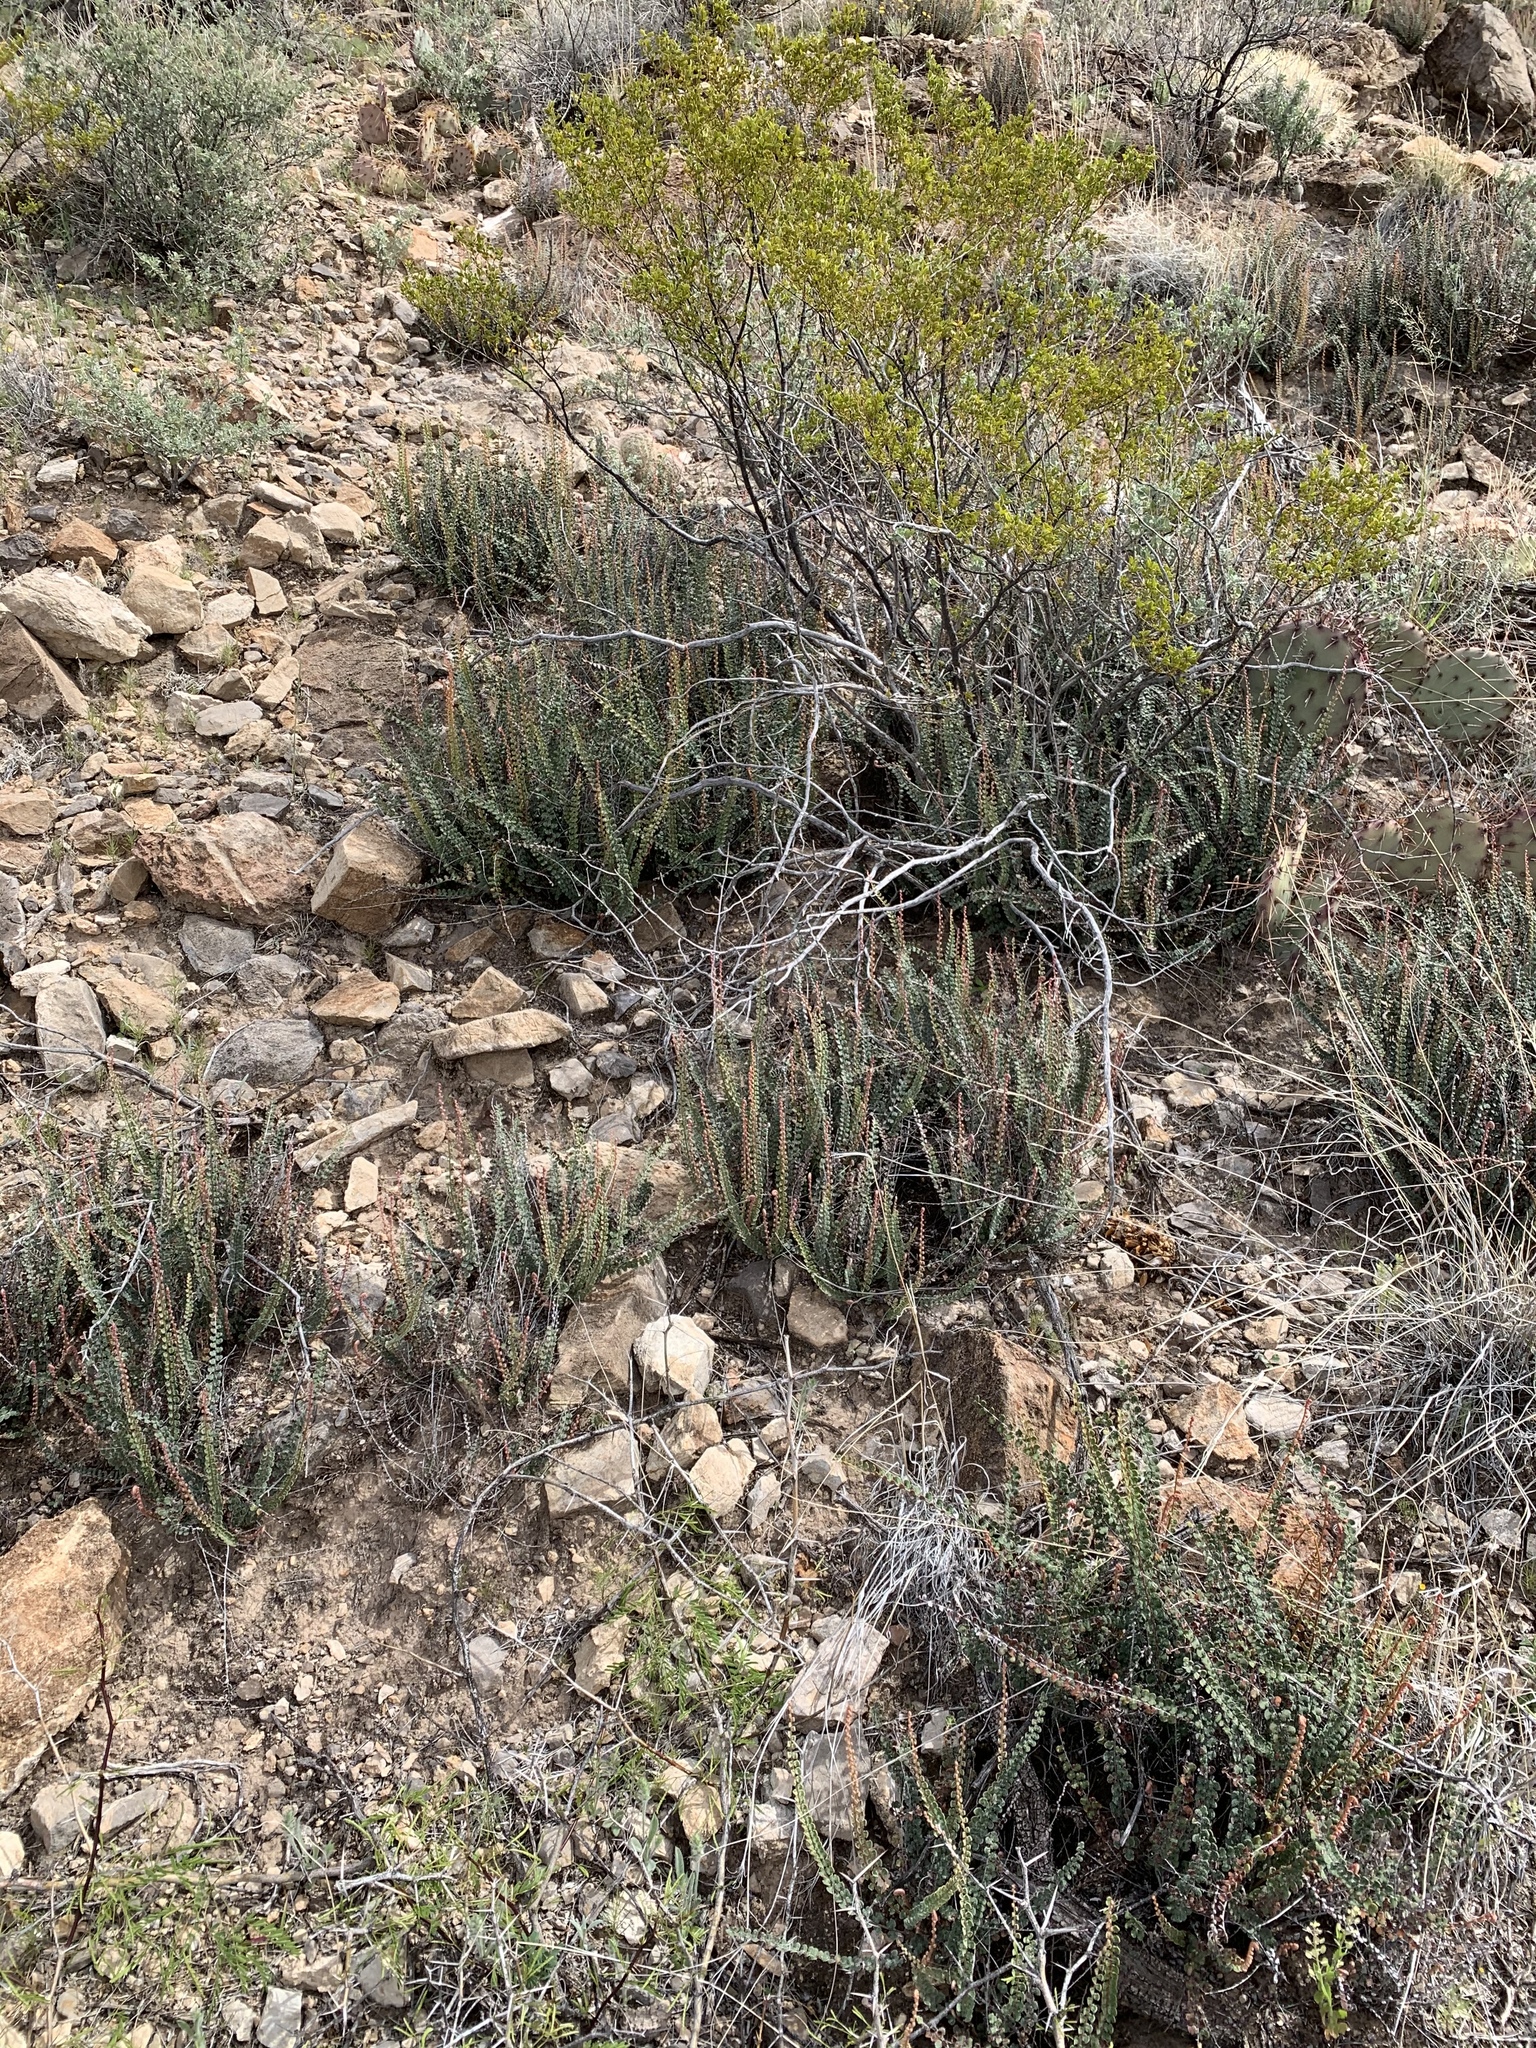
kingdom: Plantae
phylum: Tracheophyta
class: Polypodiopsida
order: Polypodiales
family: Pteridaceae
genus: Astrolepis
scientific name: Astrolepis cochisensis
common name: Scaly cloak fern
